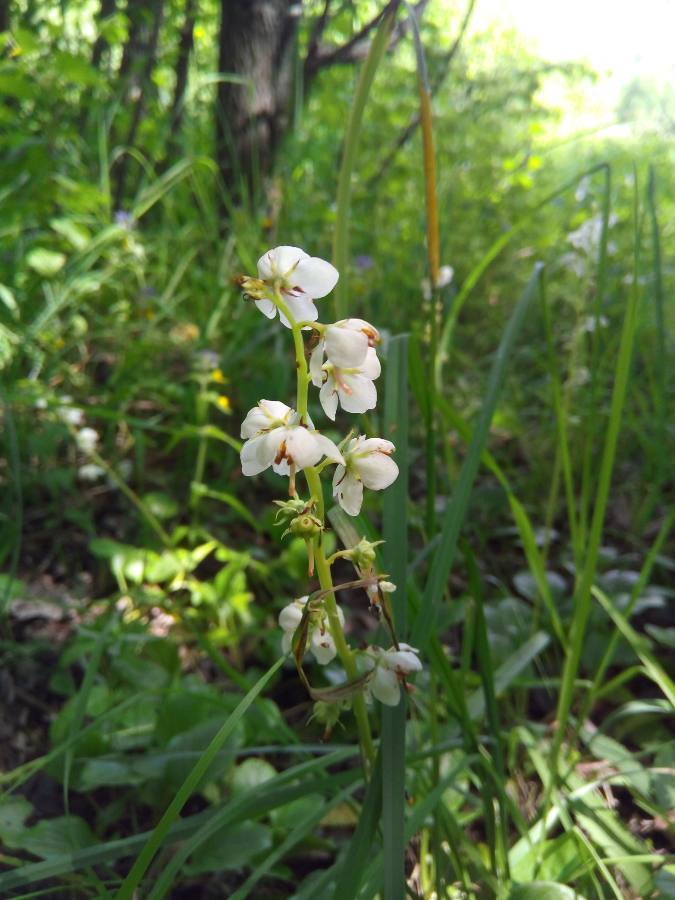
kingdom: Plantae
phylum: Tracheophyta
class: Magnoliopsida
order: Ericales
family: Ericaceae
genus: Pyrola
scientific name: Pyrola rotundifolia
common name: Round-leaved wintergreen
